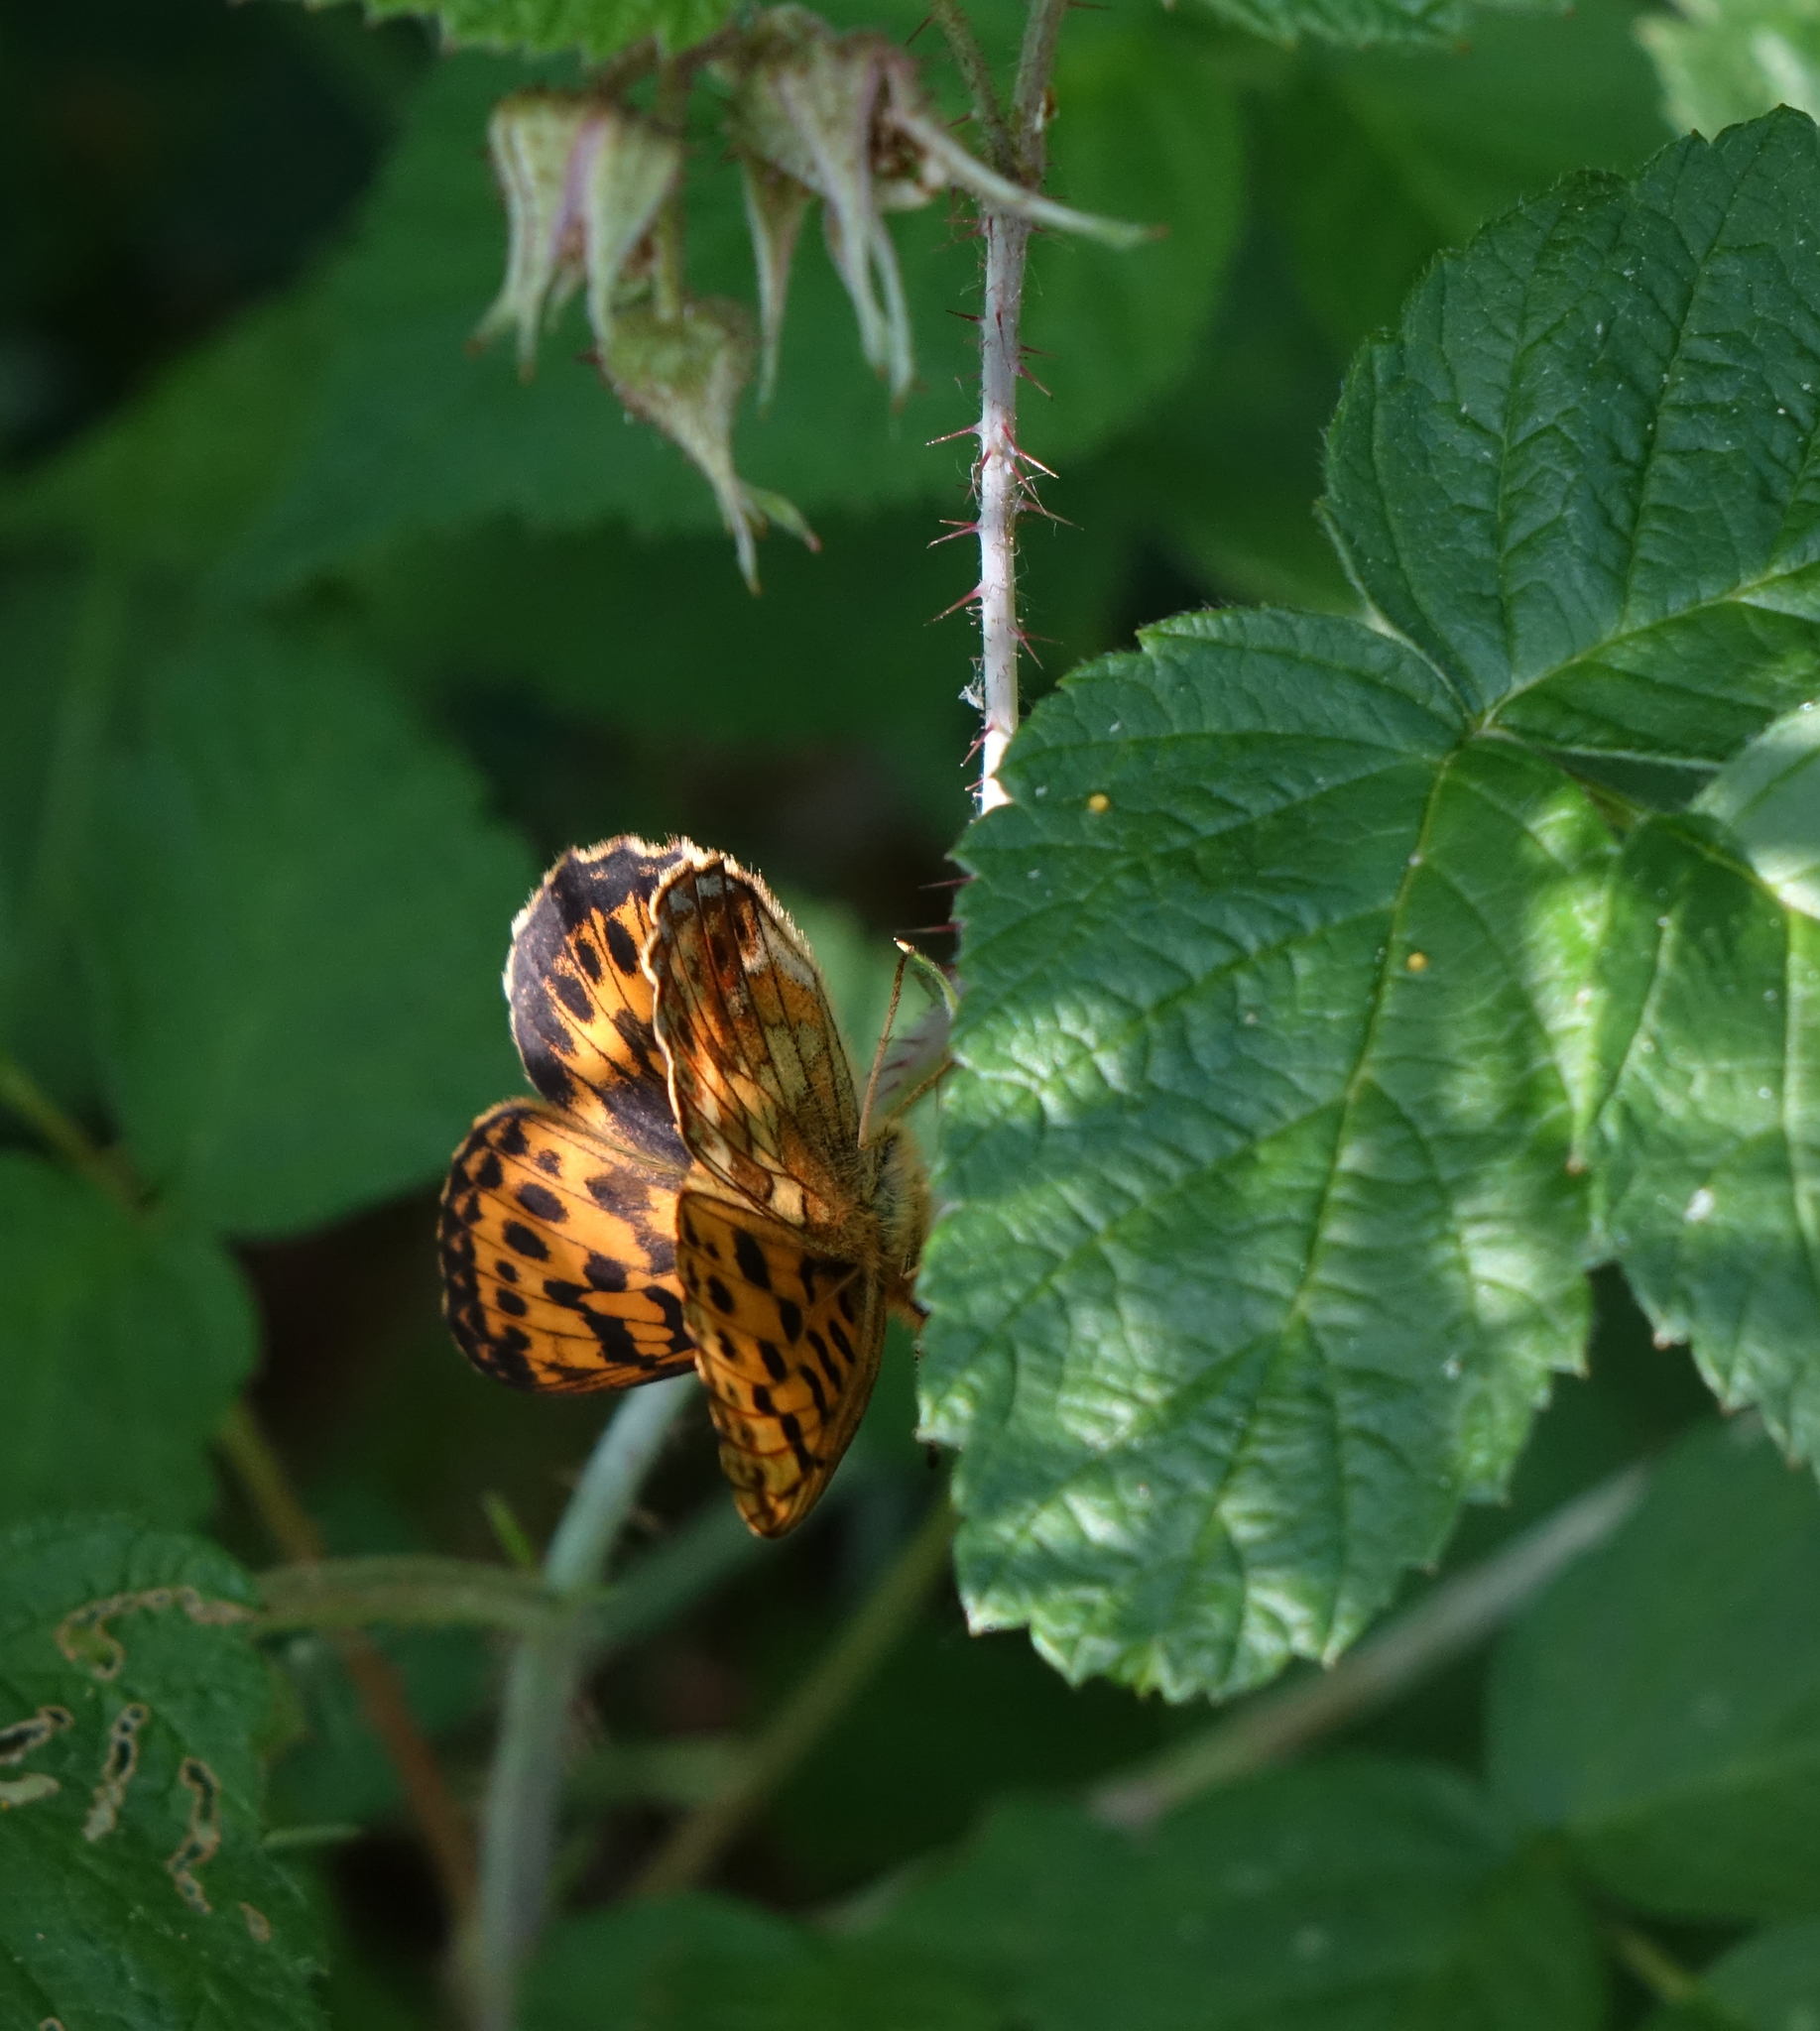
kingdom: Animalia
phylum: Arthropoda
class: Insecta
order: Lepidoptera
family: Nymphalidae
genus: Boloria
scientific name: Boloria thore
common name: Thor's fritillary
